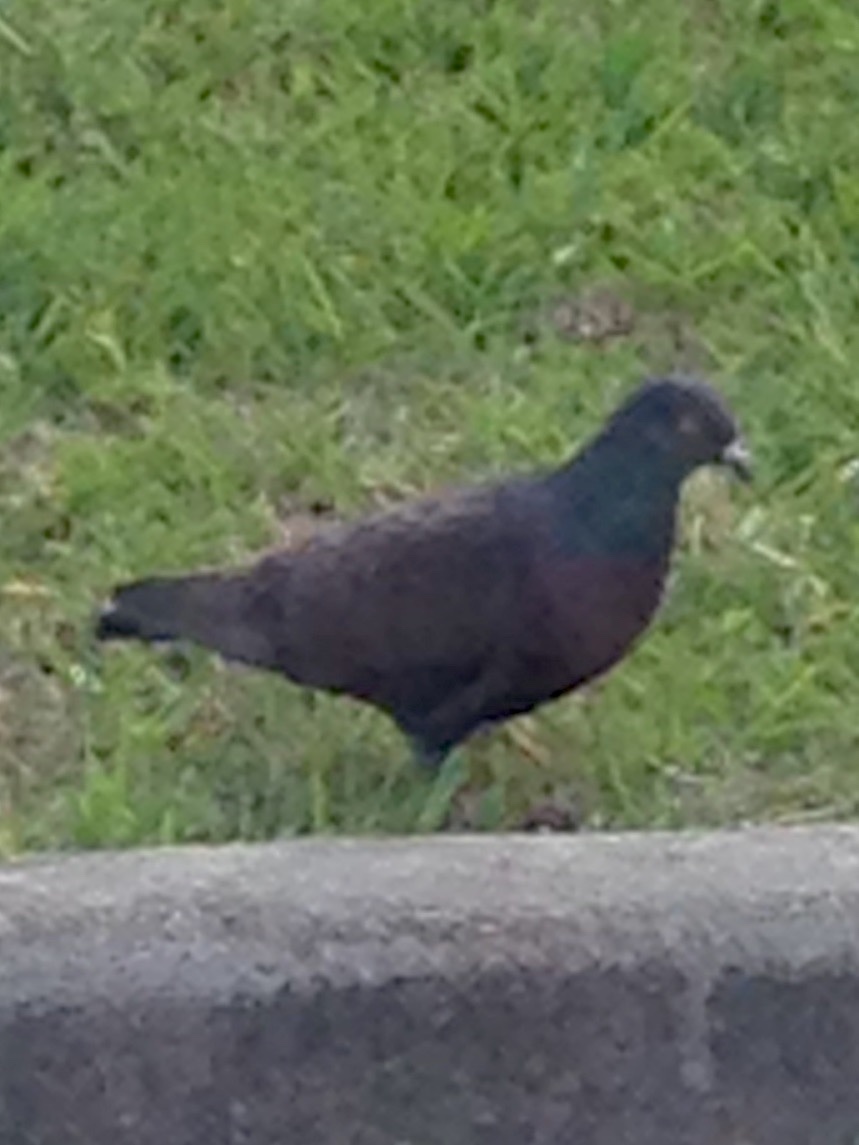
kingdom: Animalia
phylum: Chordata
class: Aves
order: Columbiformes
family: Columbidae
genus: Columba
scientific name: Columba livia
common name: Rock pigeon
